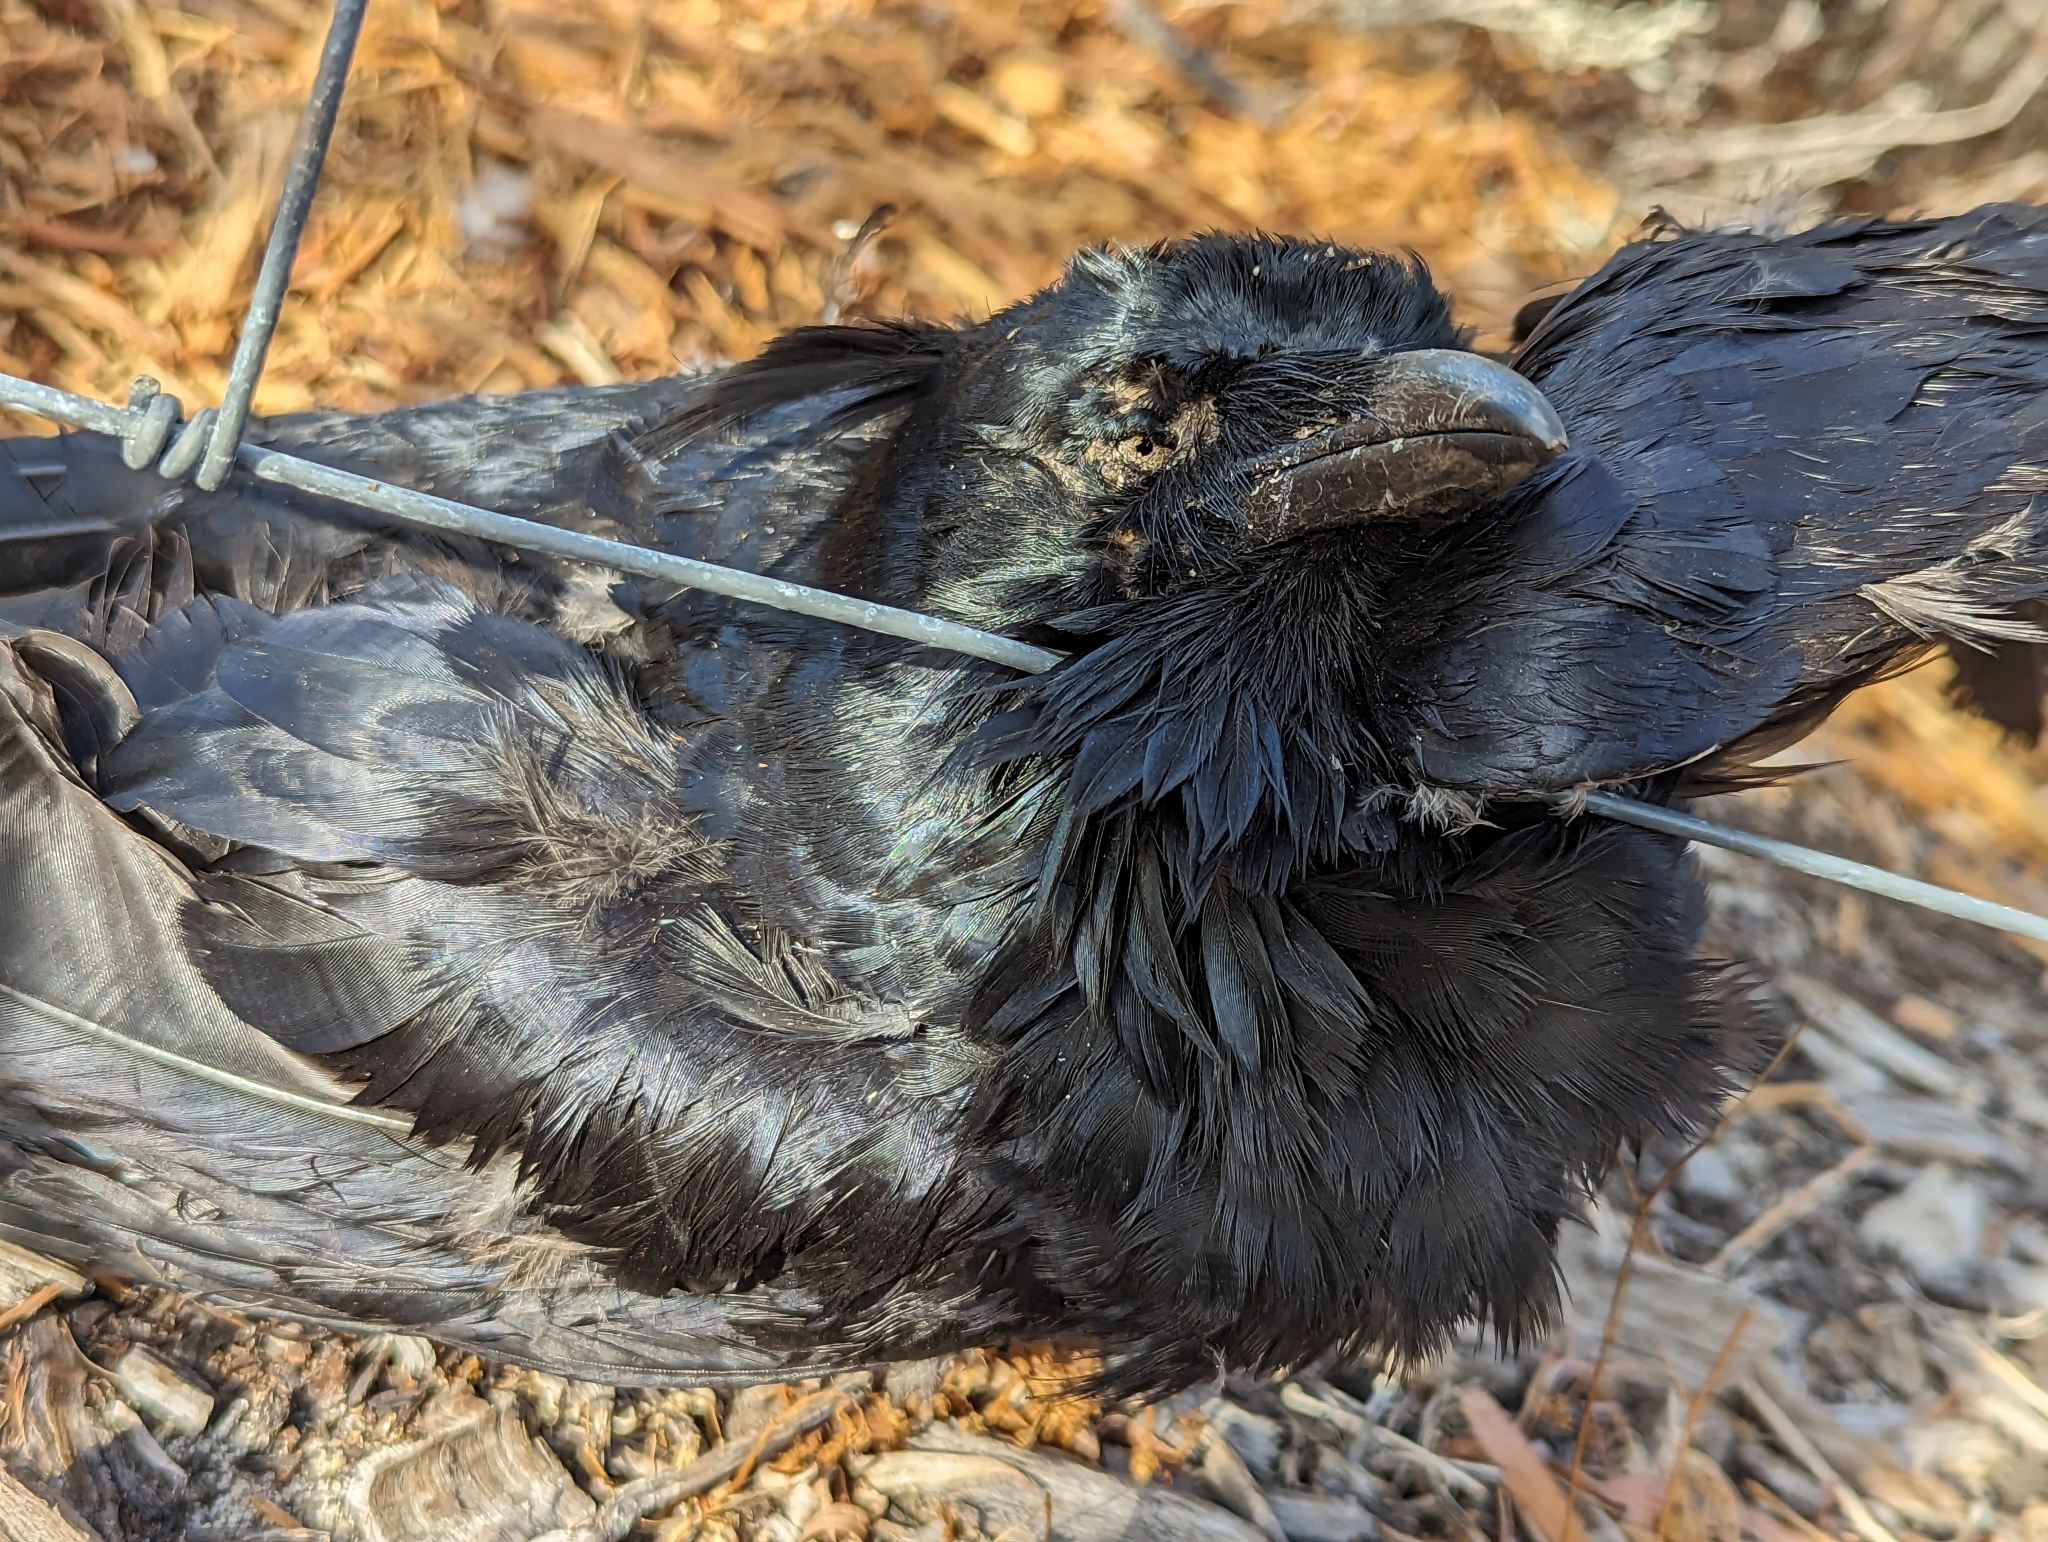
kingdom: Animalia
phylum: Chordata
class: Aves
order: Passeriformes
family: Corvidae
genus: Corvus
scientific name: Corvus coronoides
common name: Australian raven
